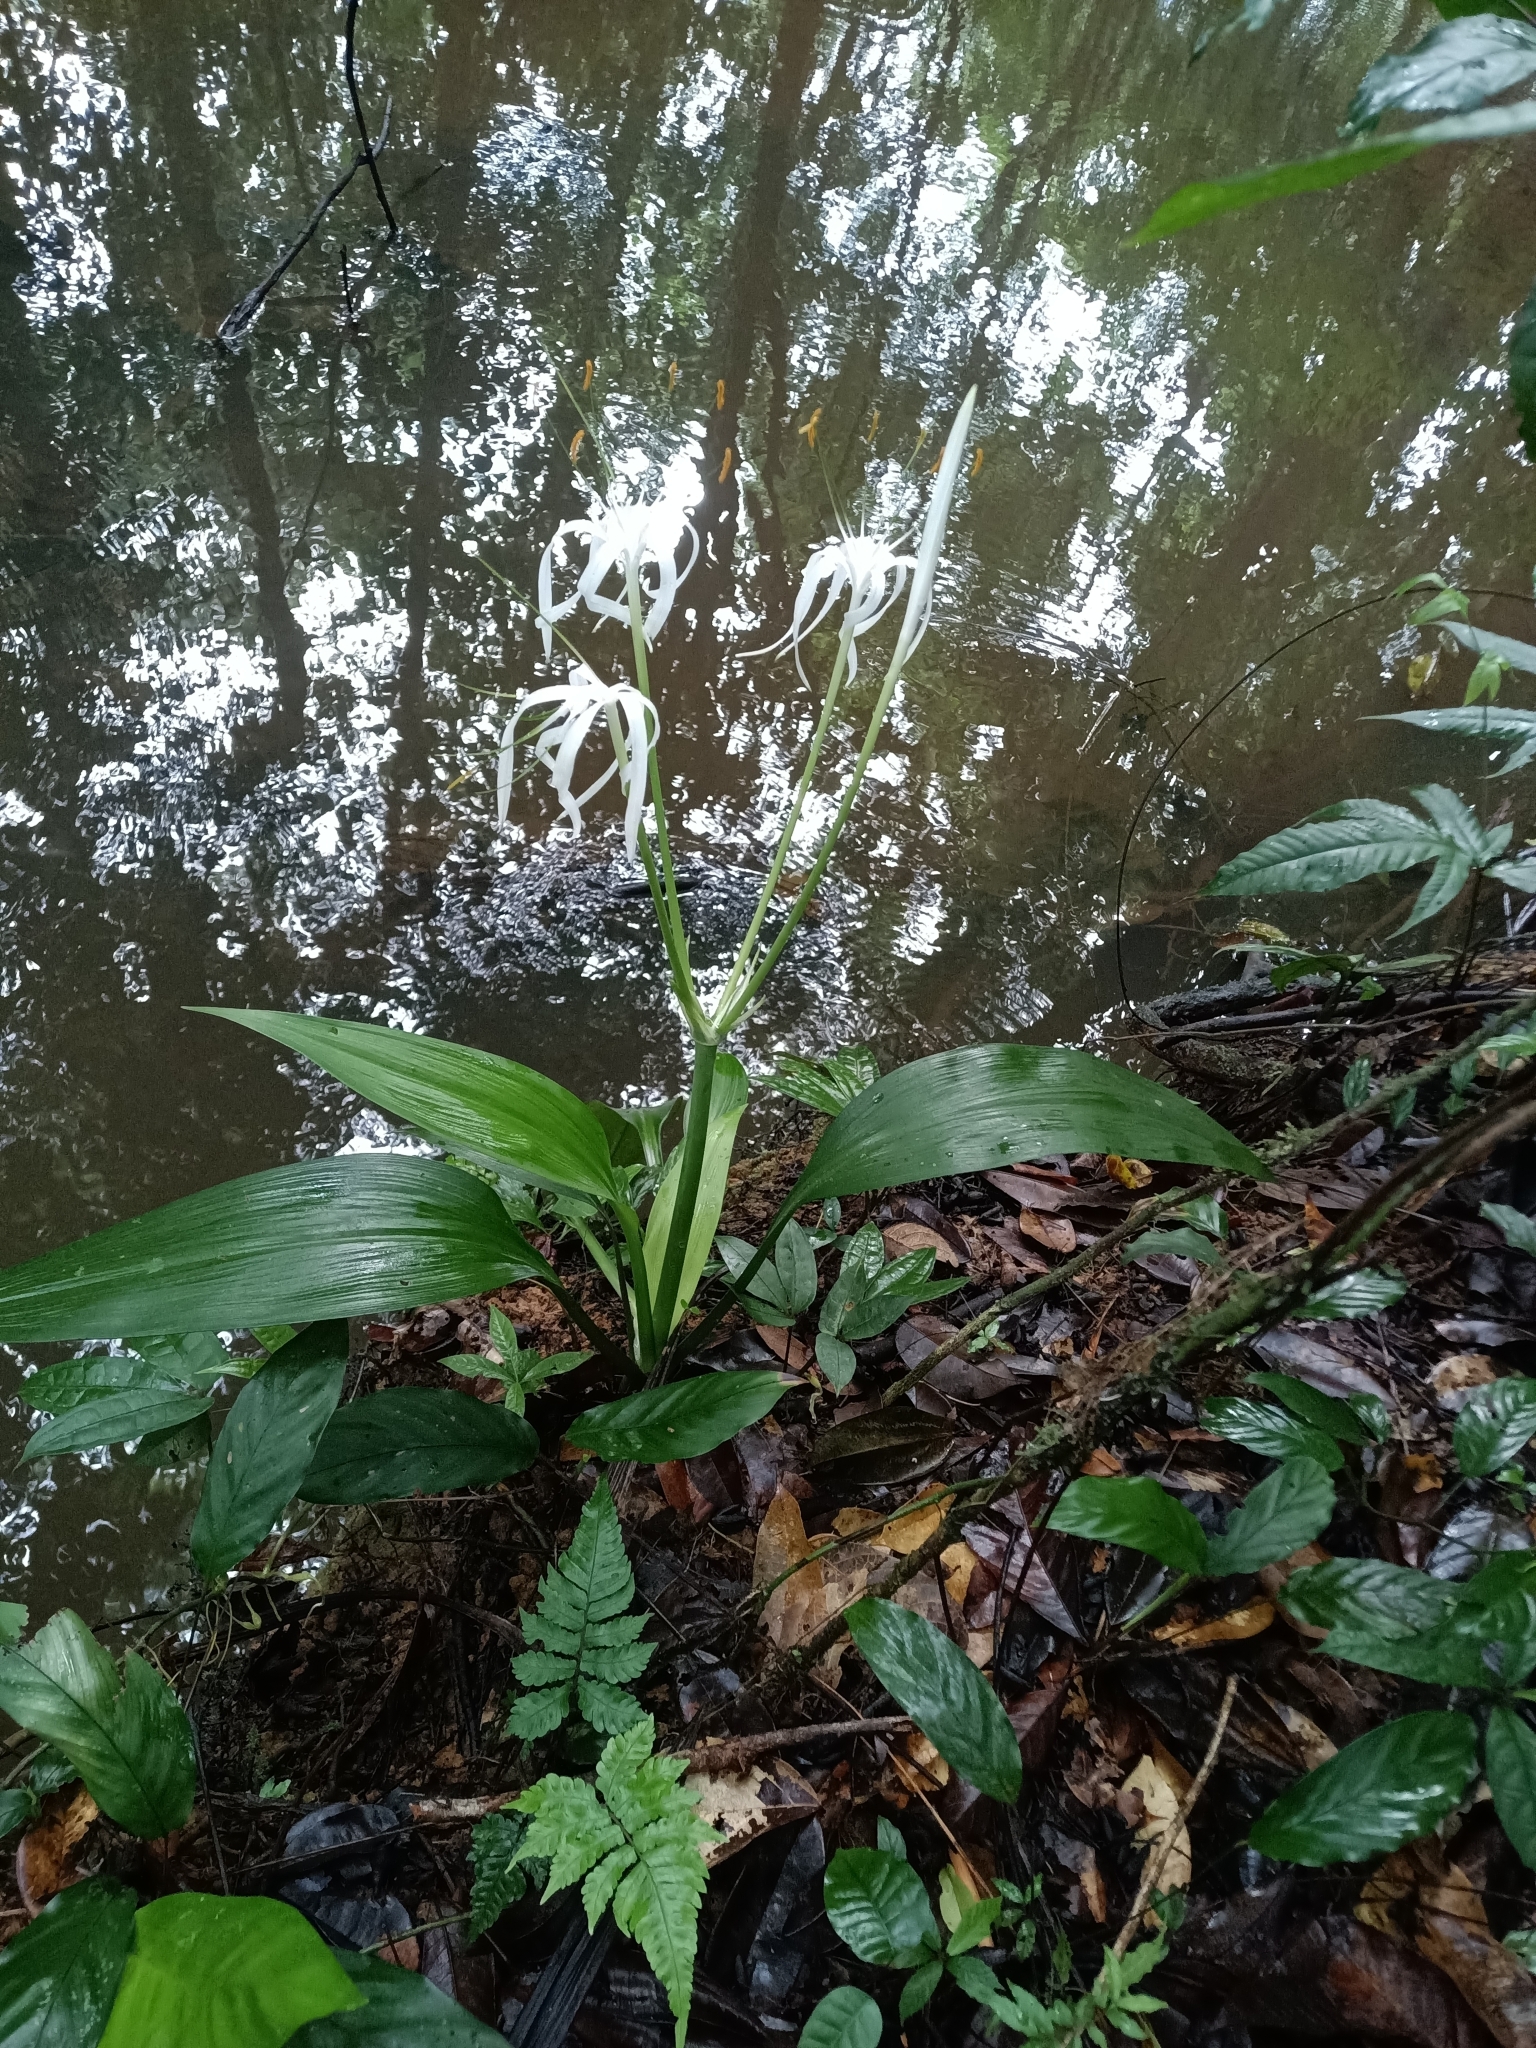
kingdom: Plantae
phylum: Tracheophyta
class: Liliopsida
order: Asparagales
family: Amaryllidaceae
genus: Hymenocallis
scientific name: Hymenocallis tubiflora
